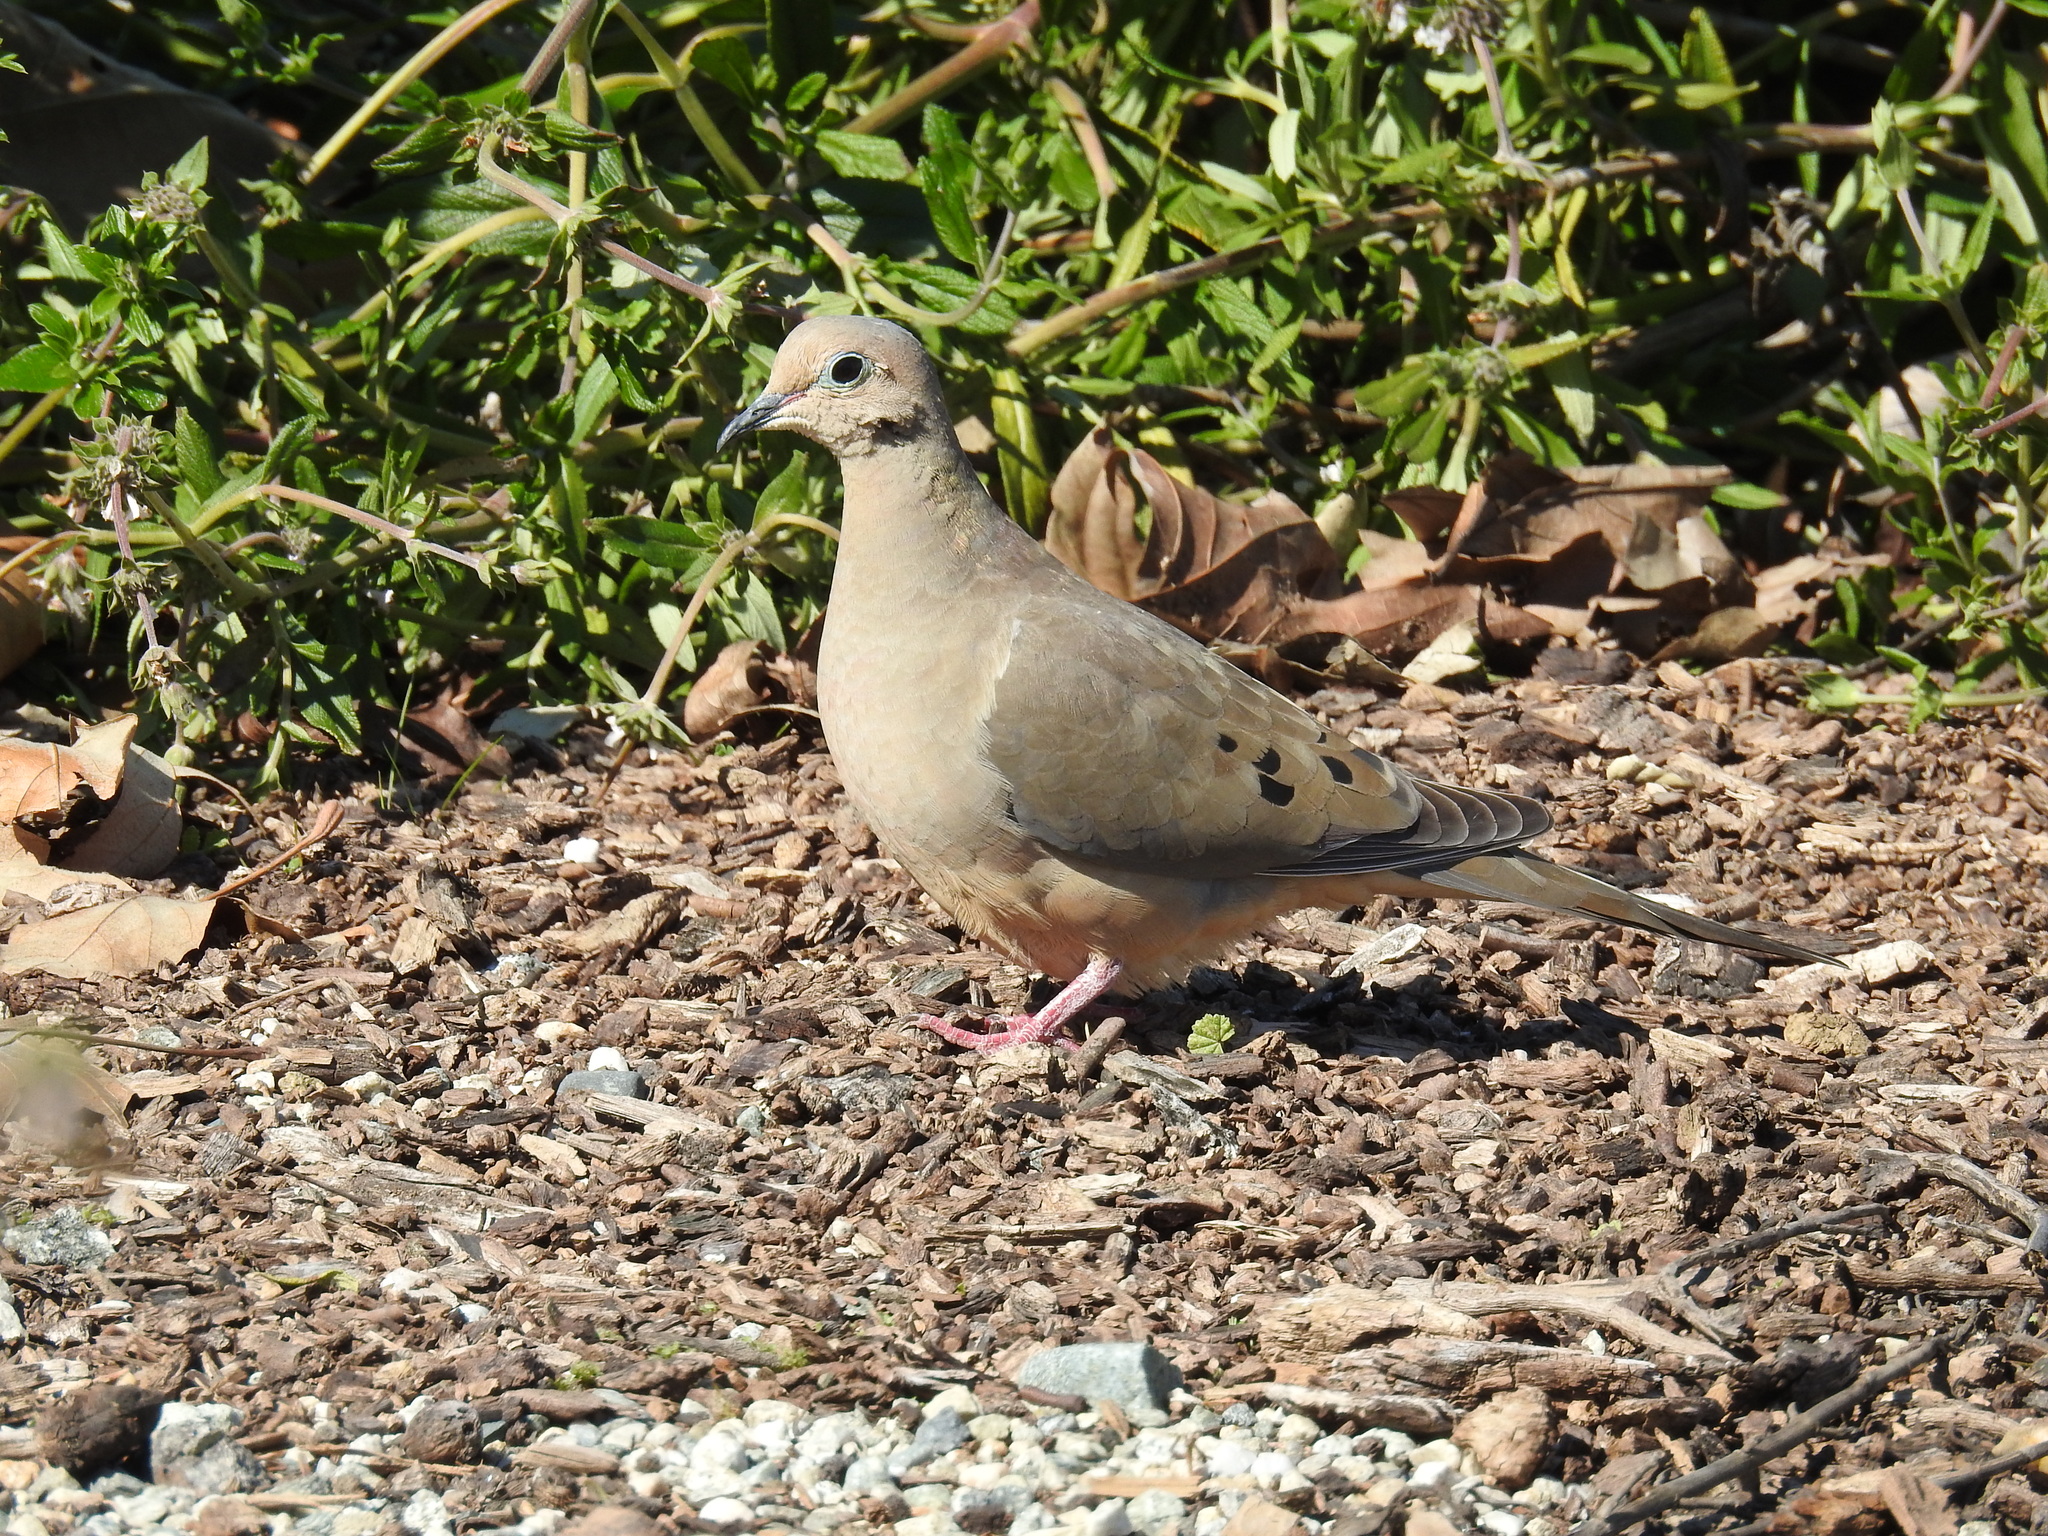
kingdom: Animalia
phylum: Chordata
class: Aves
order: Columbiformes
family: Columbidae
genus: Zenaida
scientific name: Zenaida macroura
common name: Mourning dove
